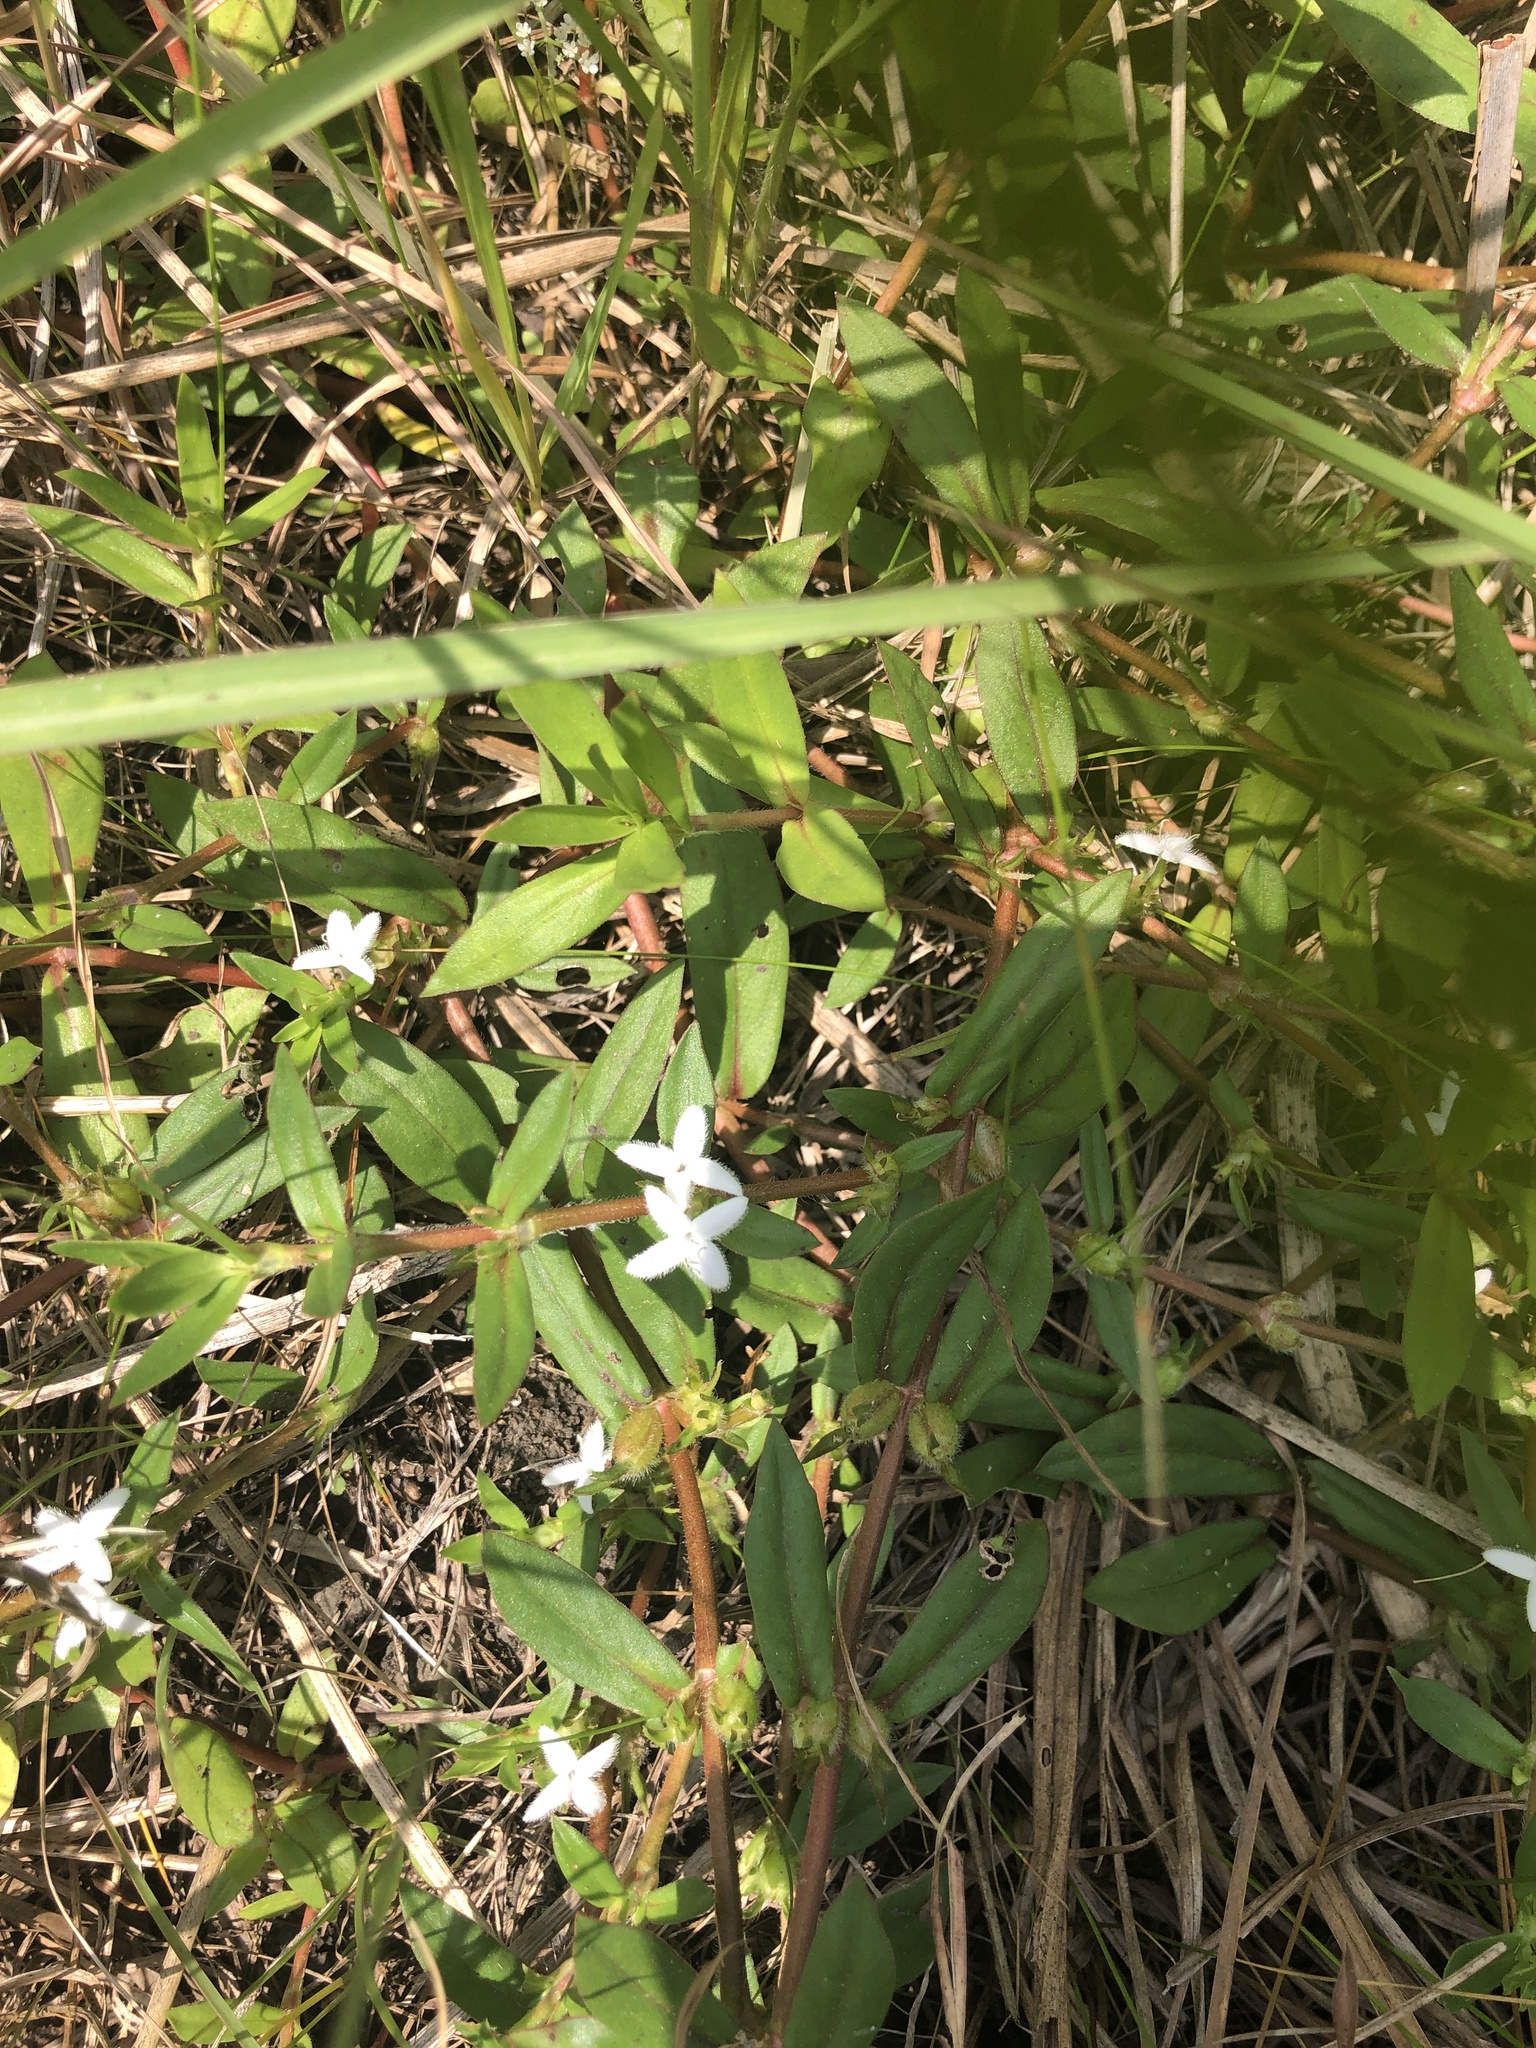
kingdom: Plantae
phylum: Tracheophyta
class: Magnoliopsida
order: Gentianales
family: Rubiaceae
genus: Diodia
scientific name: Diodia virginiana
